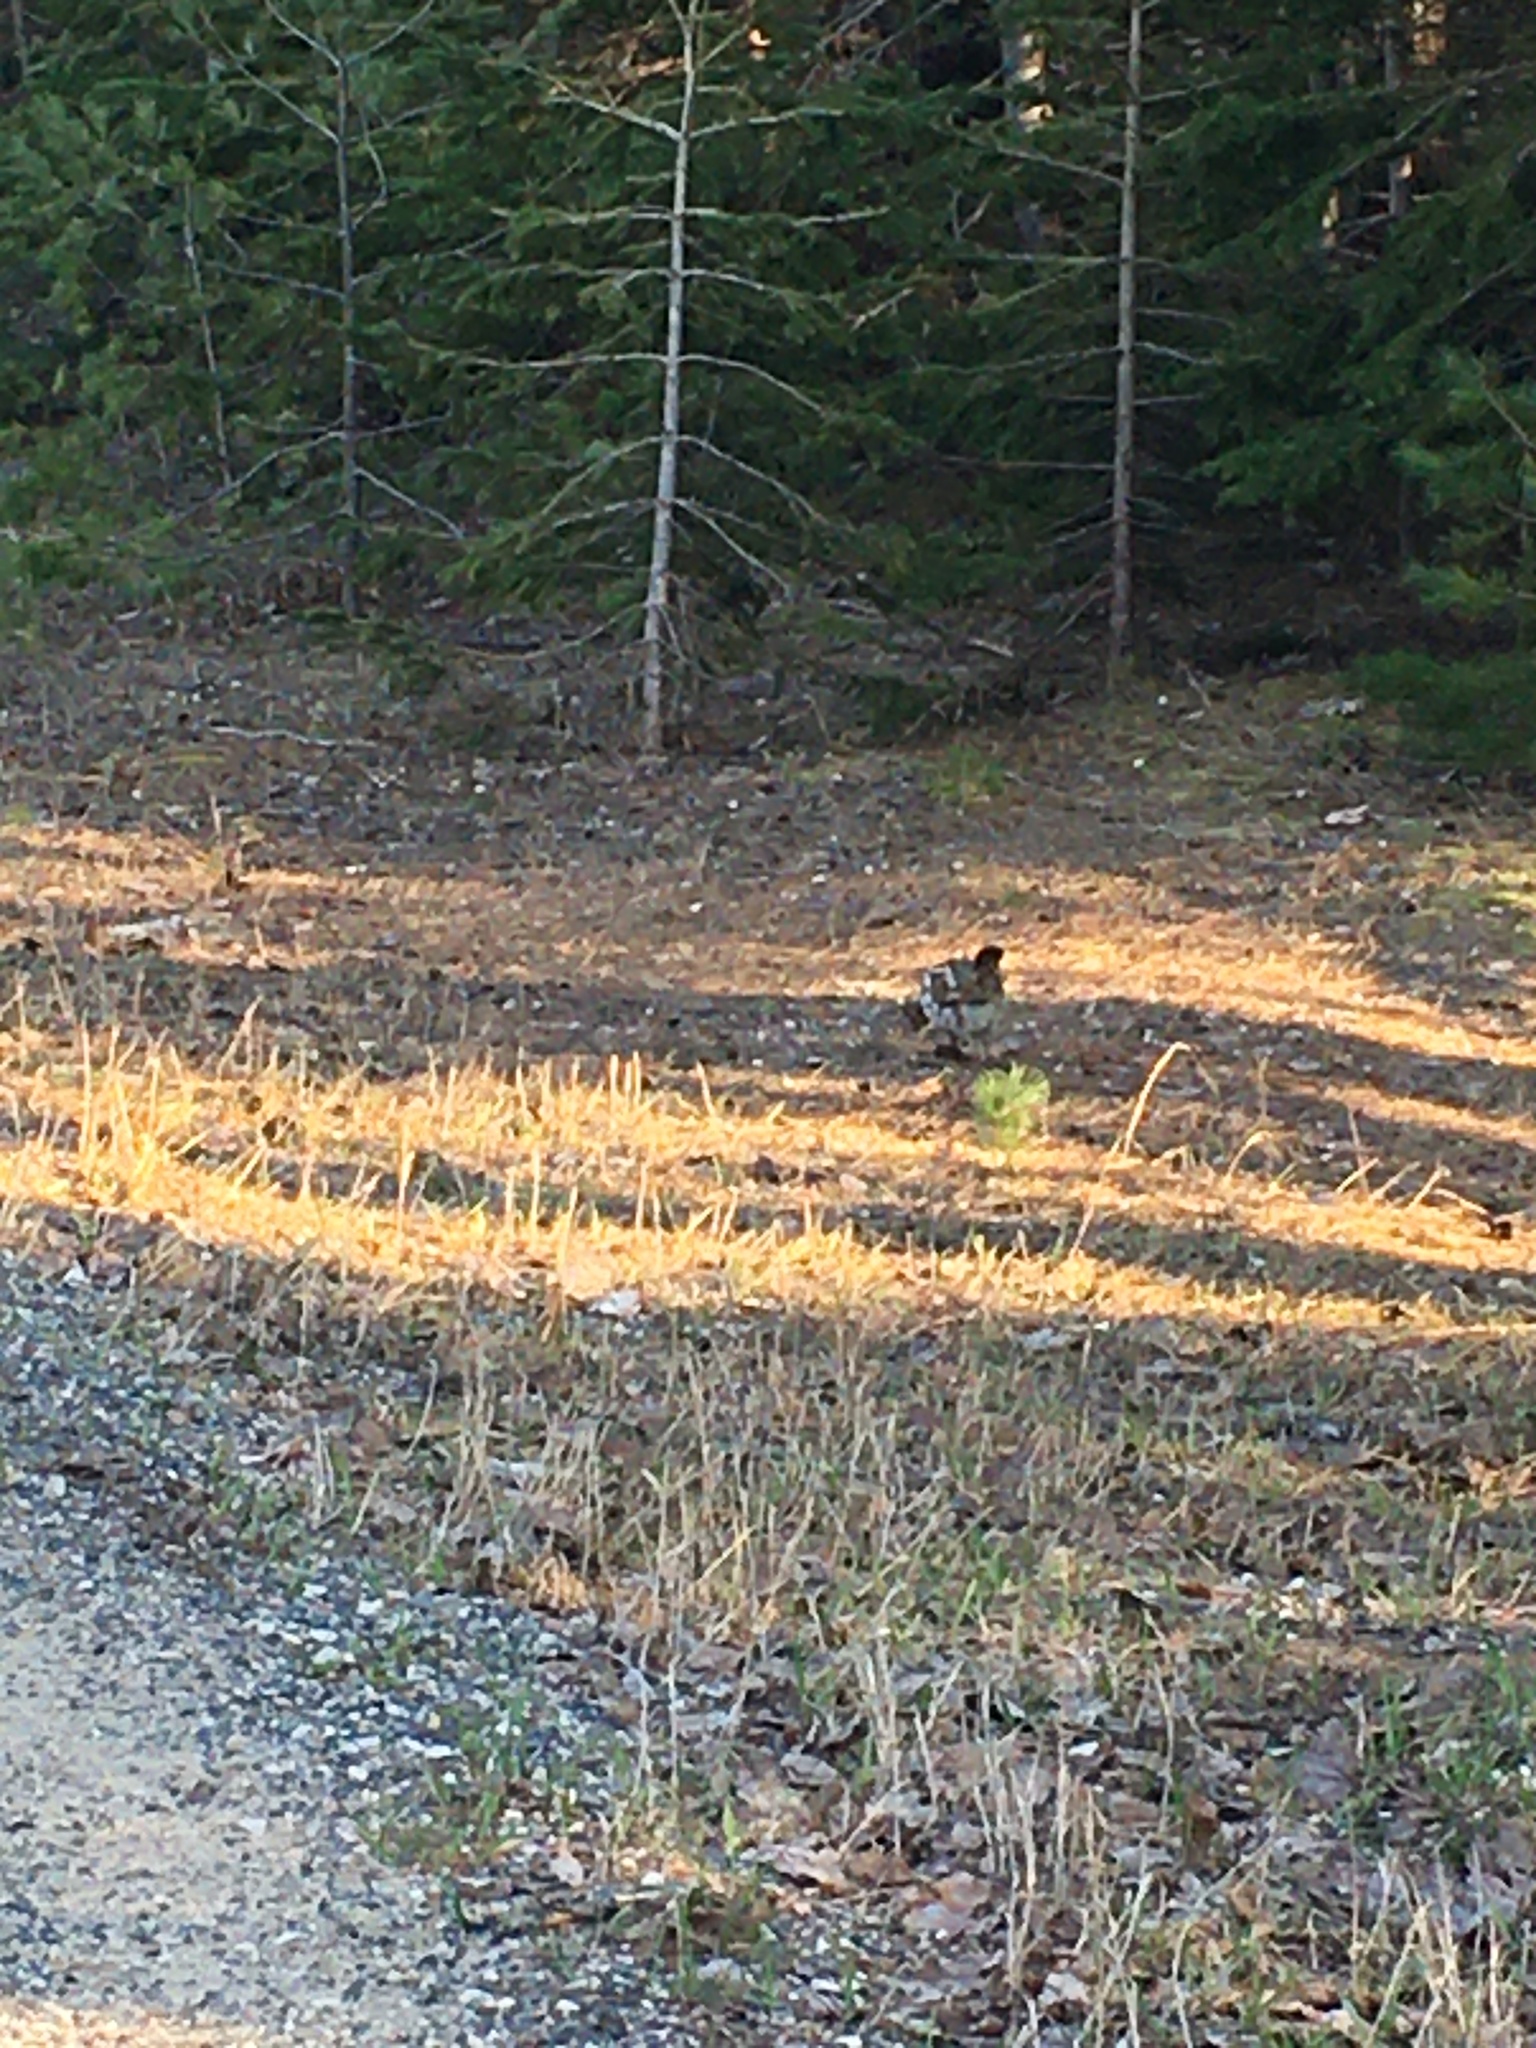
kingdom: Animalia
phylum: Chordata
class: Aves
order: Galliformes
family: Phasianidae
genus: Bonasa
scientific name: Bonasa umbellus
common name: Ruffed grouse
